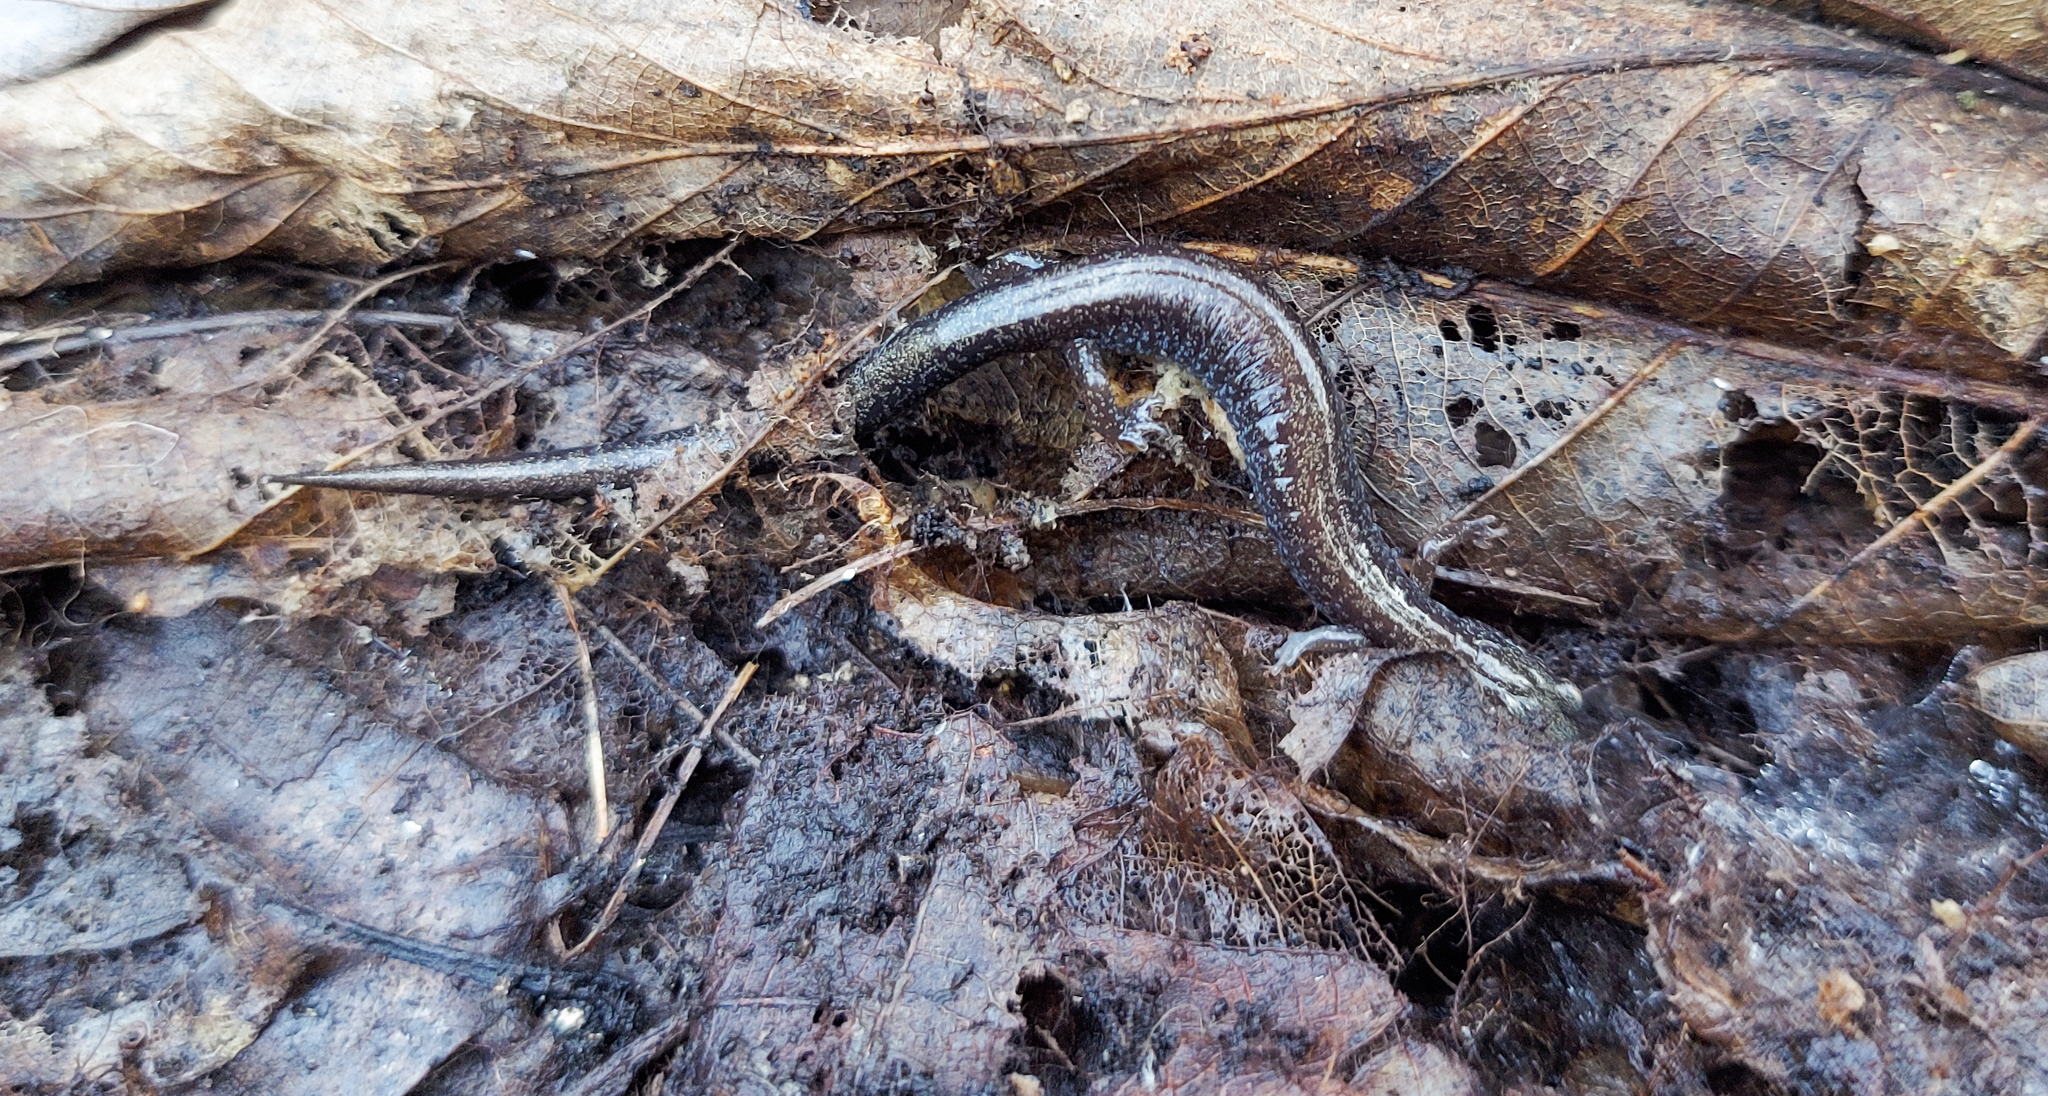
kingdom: Animalia
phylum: Chordata
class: Amphibia
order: Caudata
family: Plethodontidae
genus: Plethodon
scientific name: Plethodon cinereus
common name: Redback salamander
